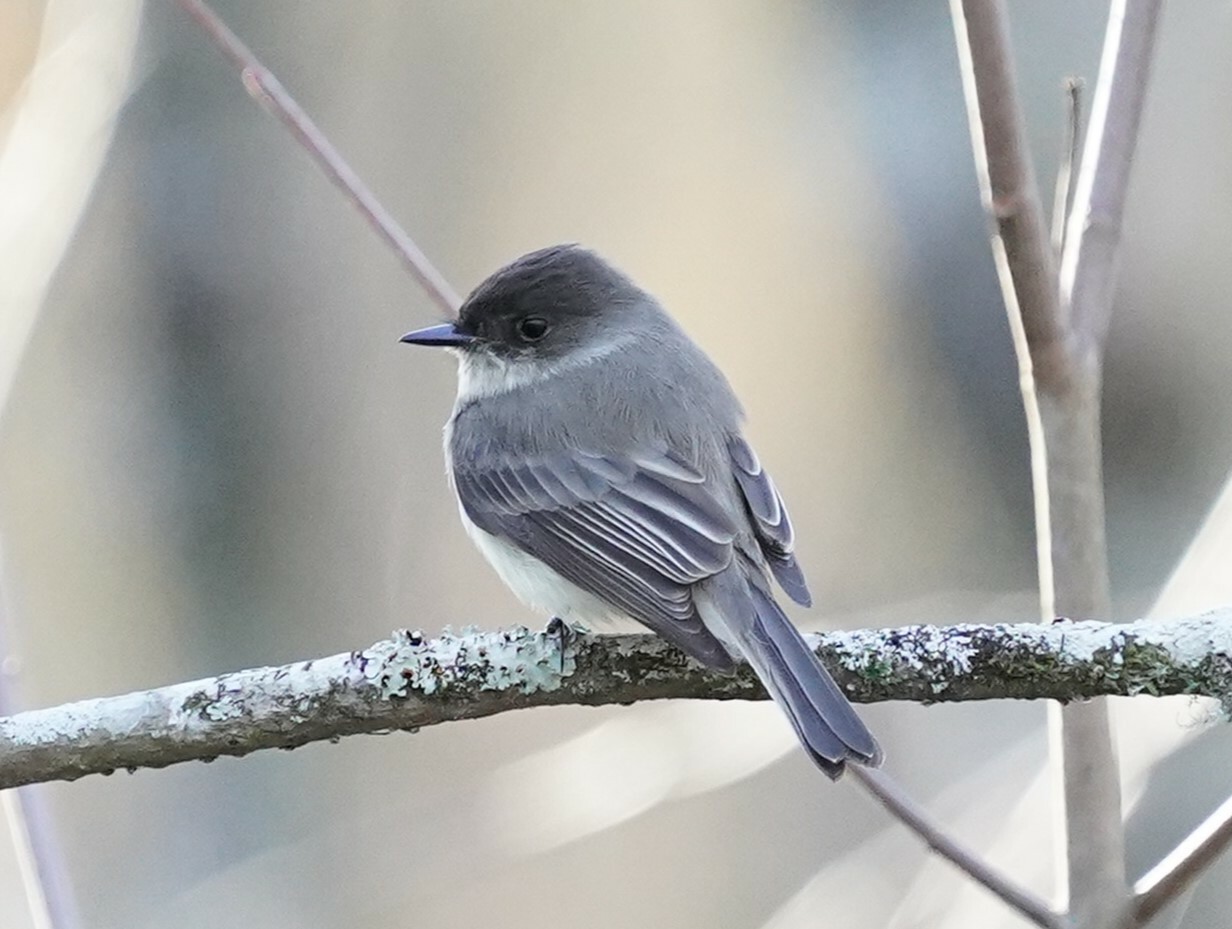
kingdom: Animalia
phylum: Chordata
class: Aves
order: Passeriformes
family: Tyrannidae
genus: Sayornis
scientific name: Sayornis phoebe
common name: Eastern phoebe
